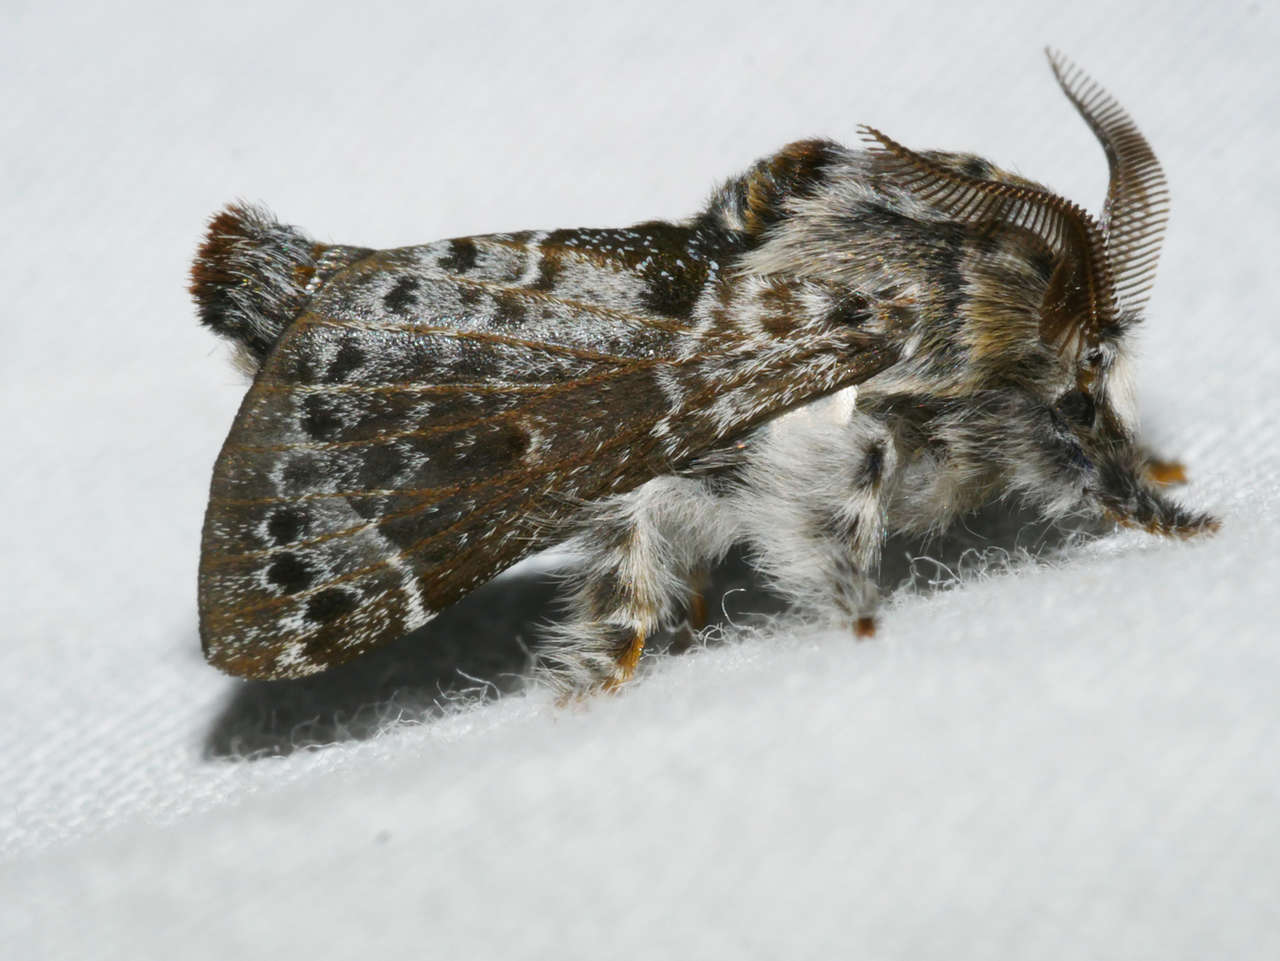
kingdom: Animalia
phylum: Arthropoda
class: Insecta
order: Lepidoptera
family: Lasiocampidae
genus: Genduara
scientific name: Genduara subnotata
